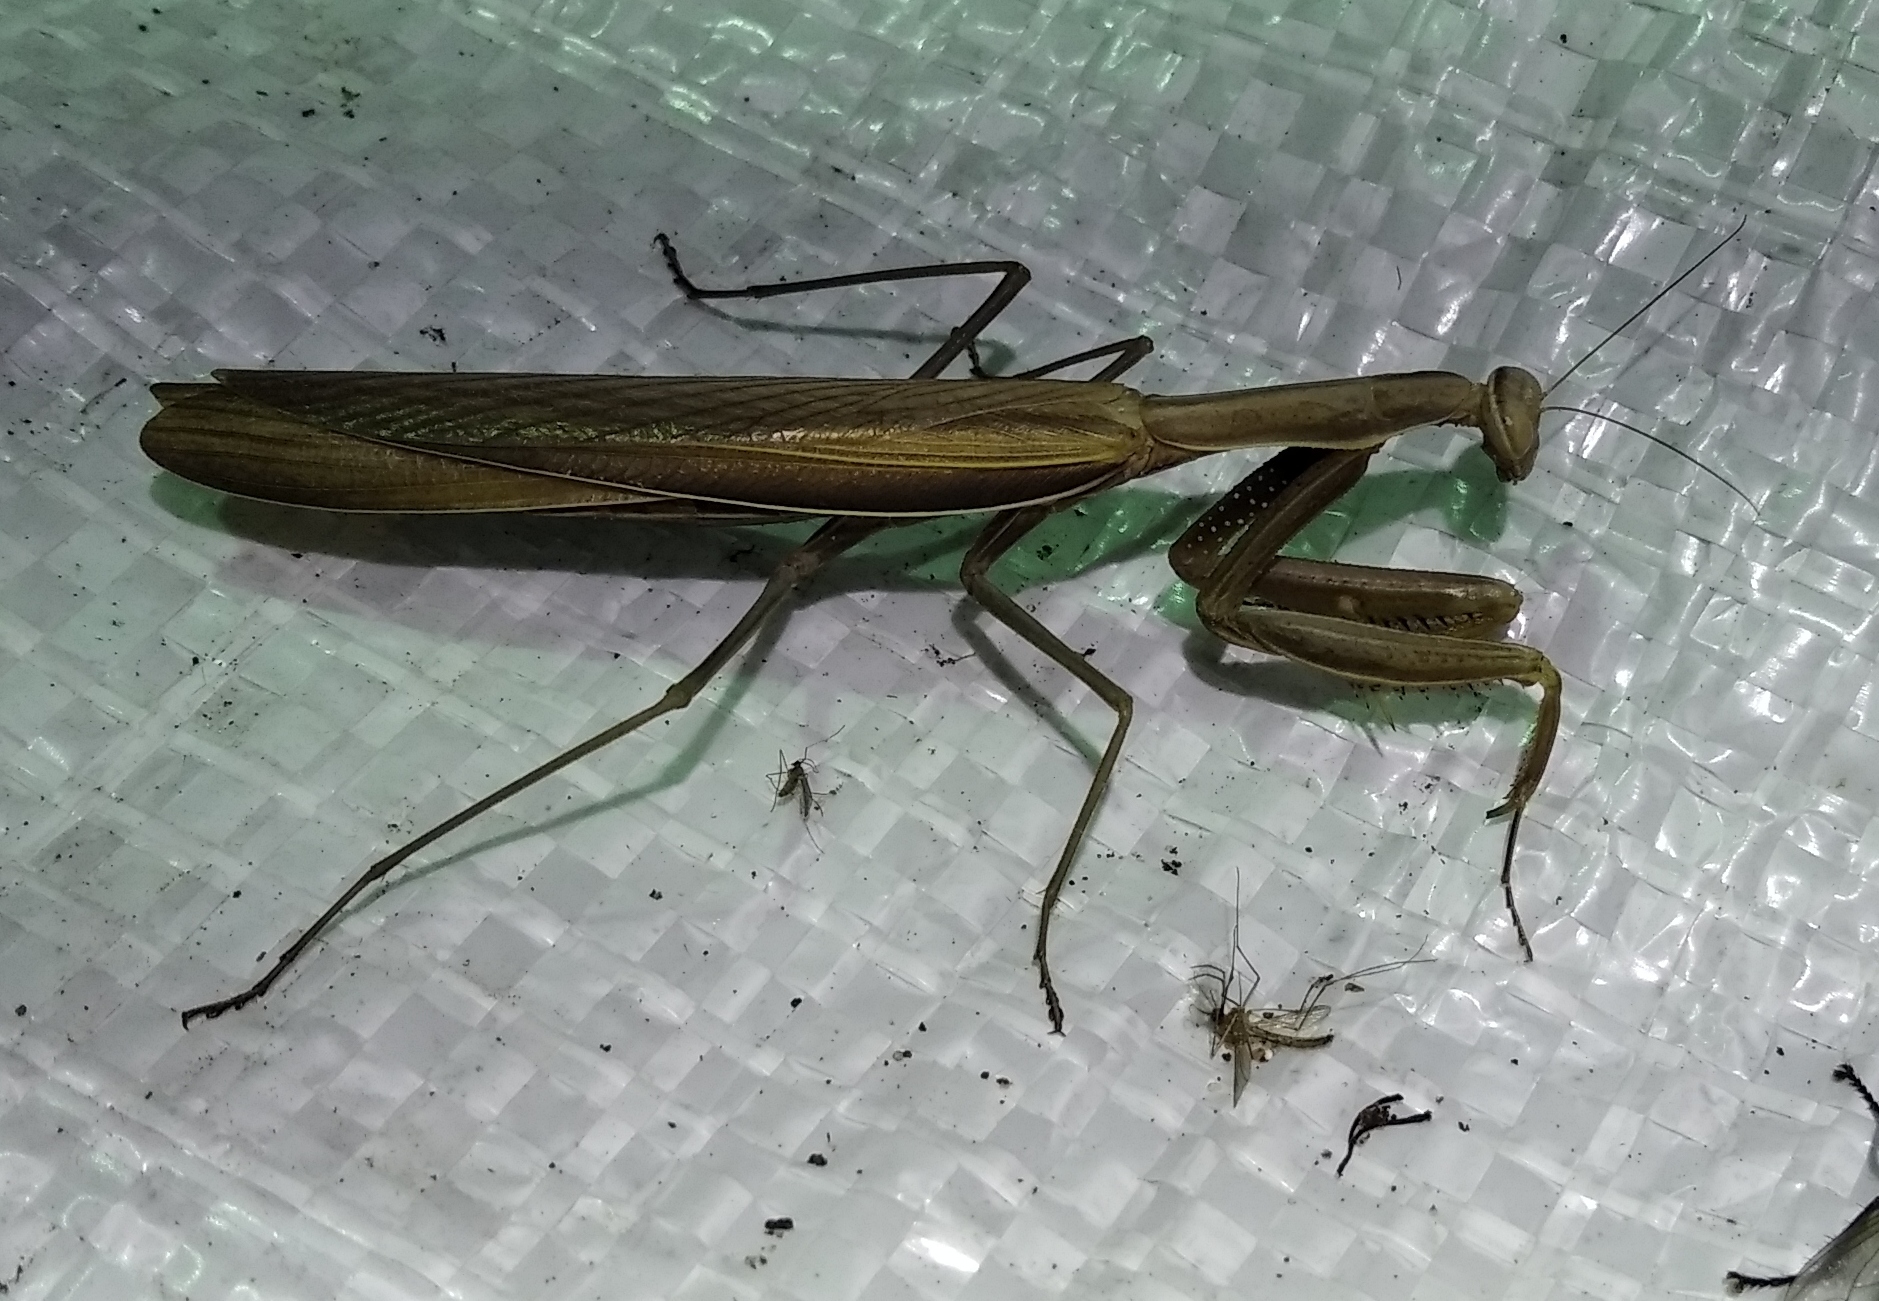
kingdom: Animalia
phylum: Arthropoda
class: Insecta
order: Mantodea
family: Mantidae
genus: Mantis
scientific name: Mantis religiosa
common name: Praying mantis
